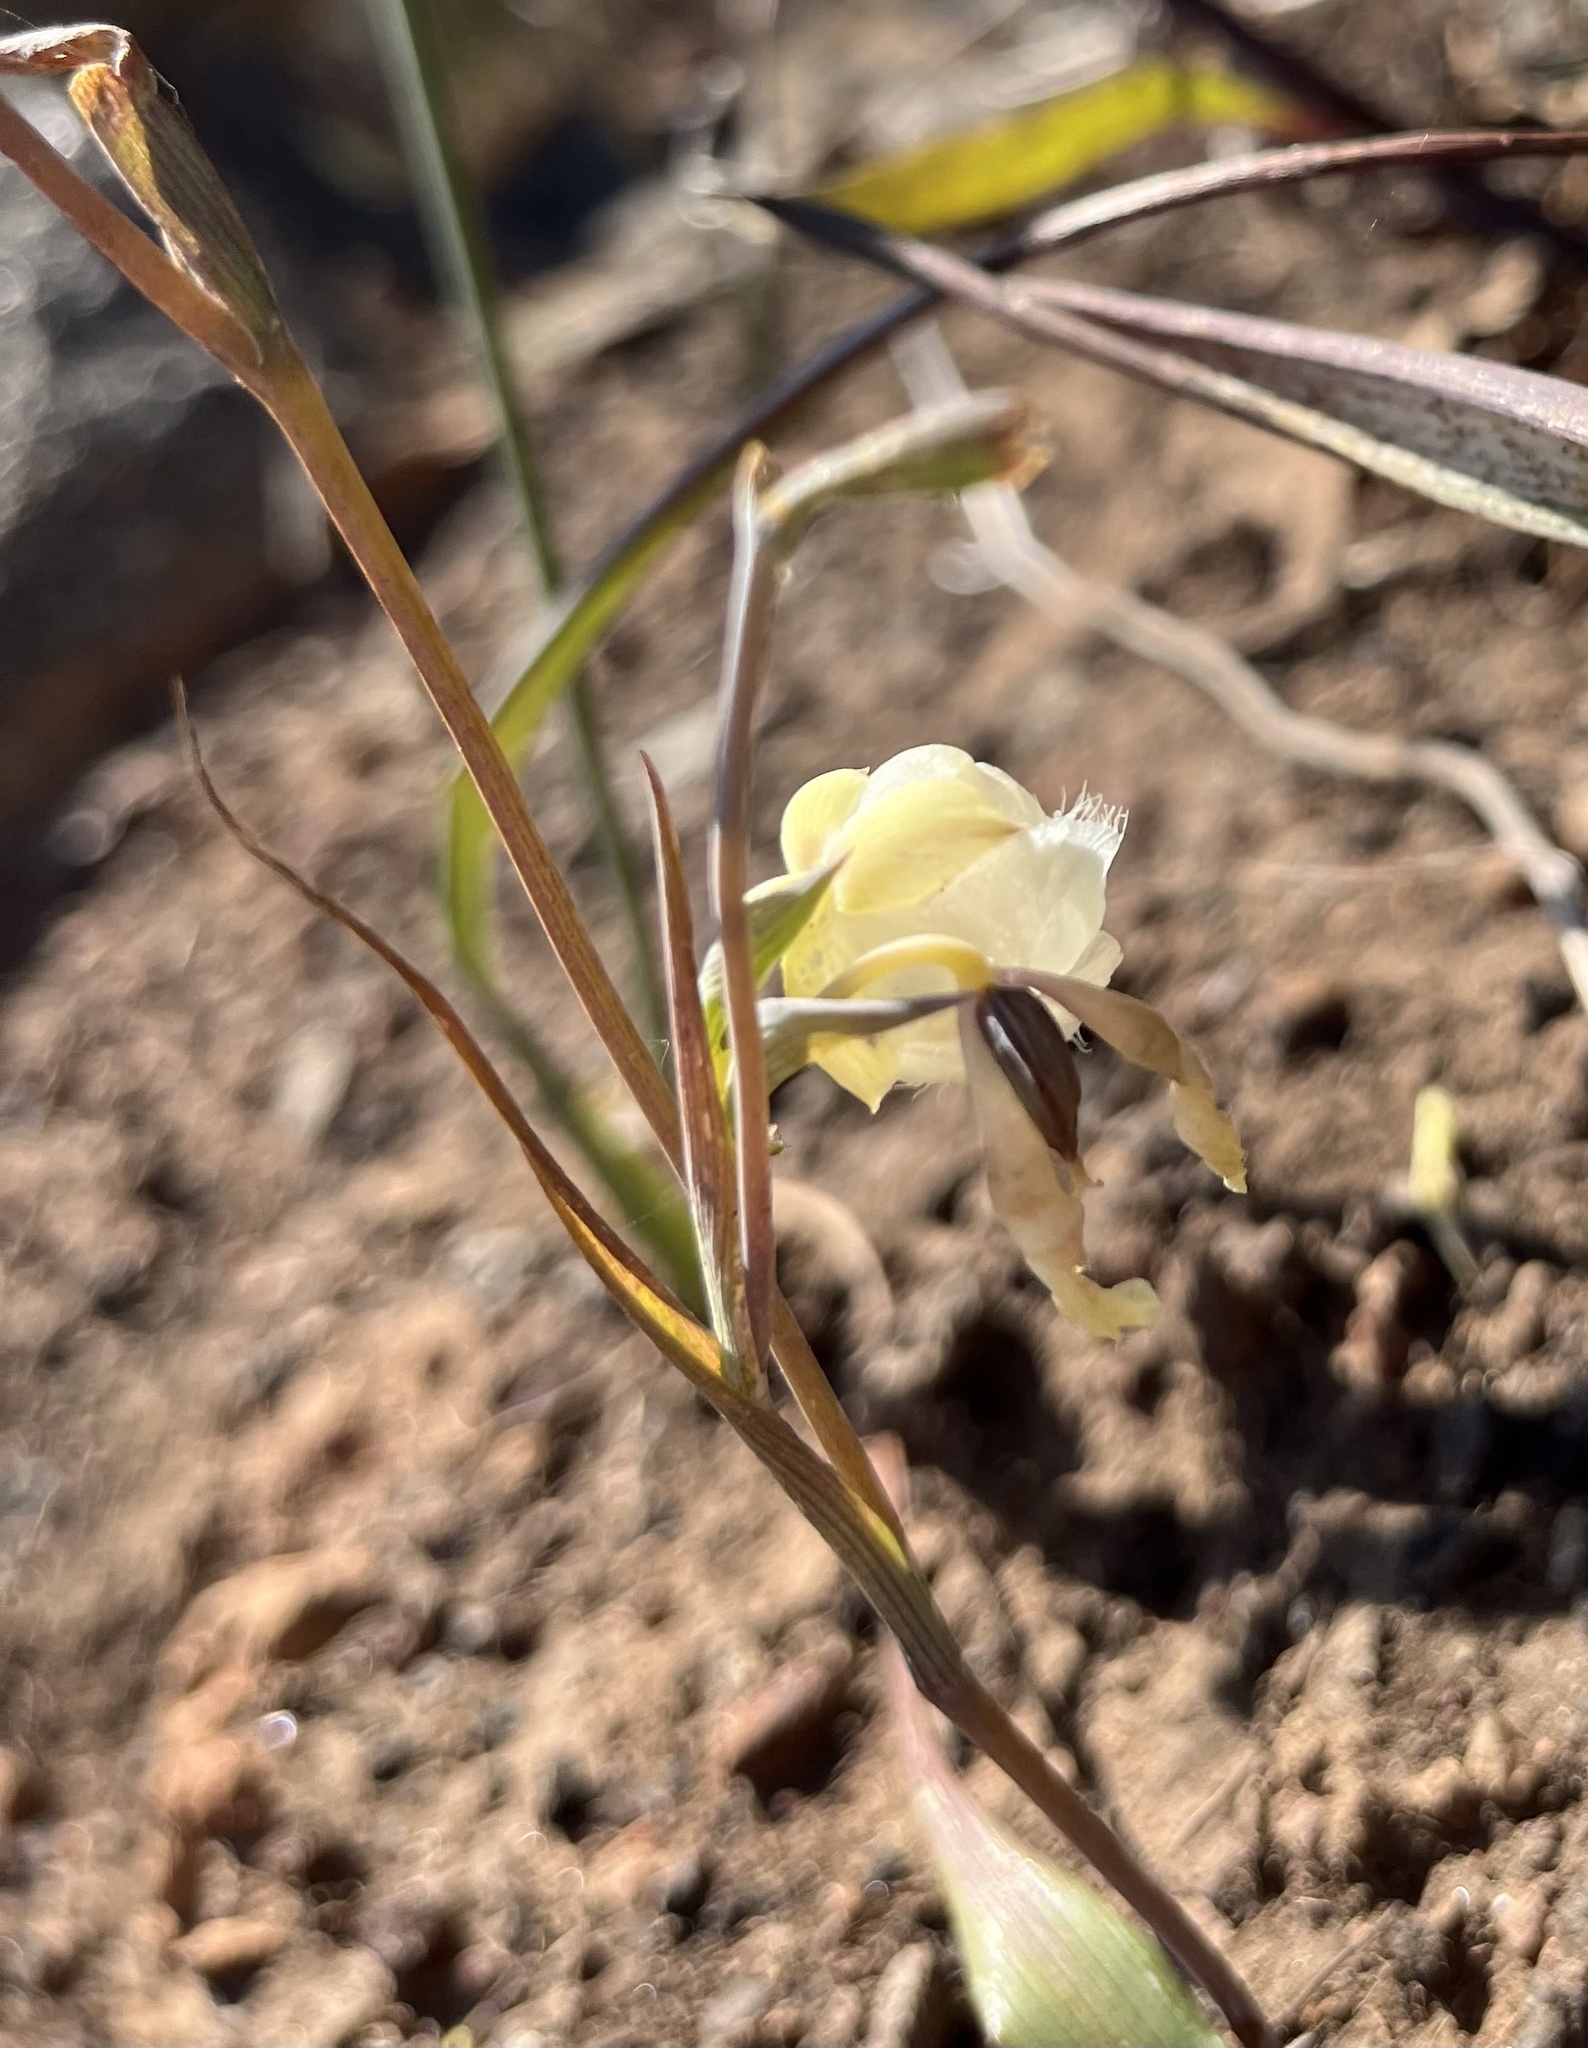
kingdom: Plantae
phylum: Tracheophyta
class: Liliopsida
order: Liliales
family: Liliaceae
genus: Calochortus
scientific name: Calochortus albus
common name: Fairy-lantern
